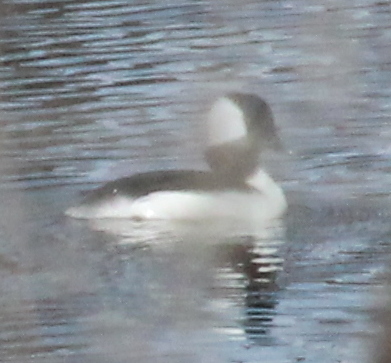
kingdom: Animalia
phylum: Chordata
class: Aves
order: Anseriformes
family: Anatidae
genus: Bucephala
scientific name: Bucephala albeola
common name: Bufflehead
